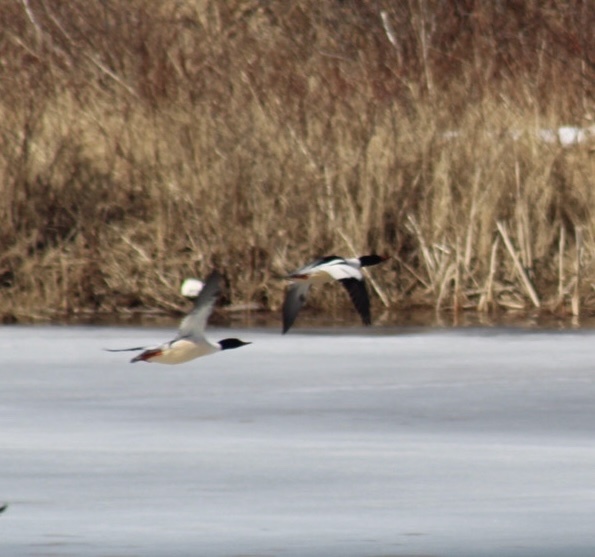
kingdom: Animalia
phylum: Chordata
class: Aves
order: Anseriformes
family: Anatidae
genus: Mergus
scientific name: Mergus merganser
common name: Common merganser
